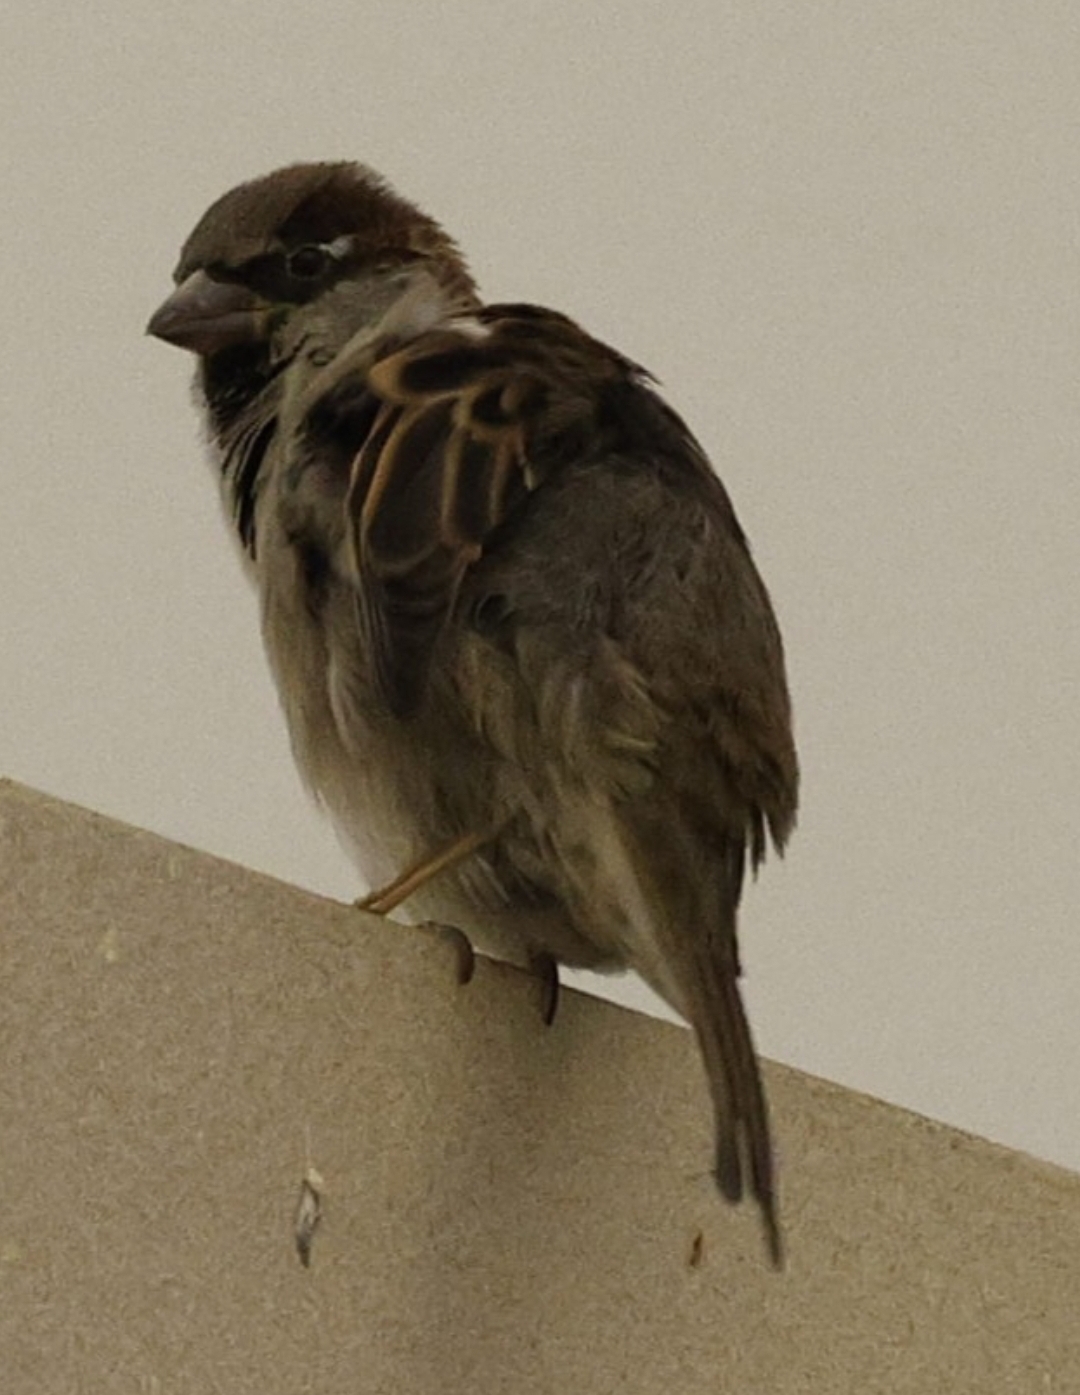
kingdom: Animalia
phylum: Chordata
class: Aves
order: Passeriformes
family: Passeridae
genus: Passer
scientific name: Passer domesticus
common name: House sparrow
